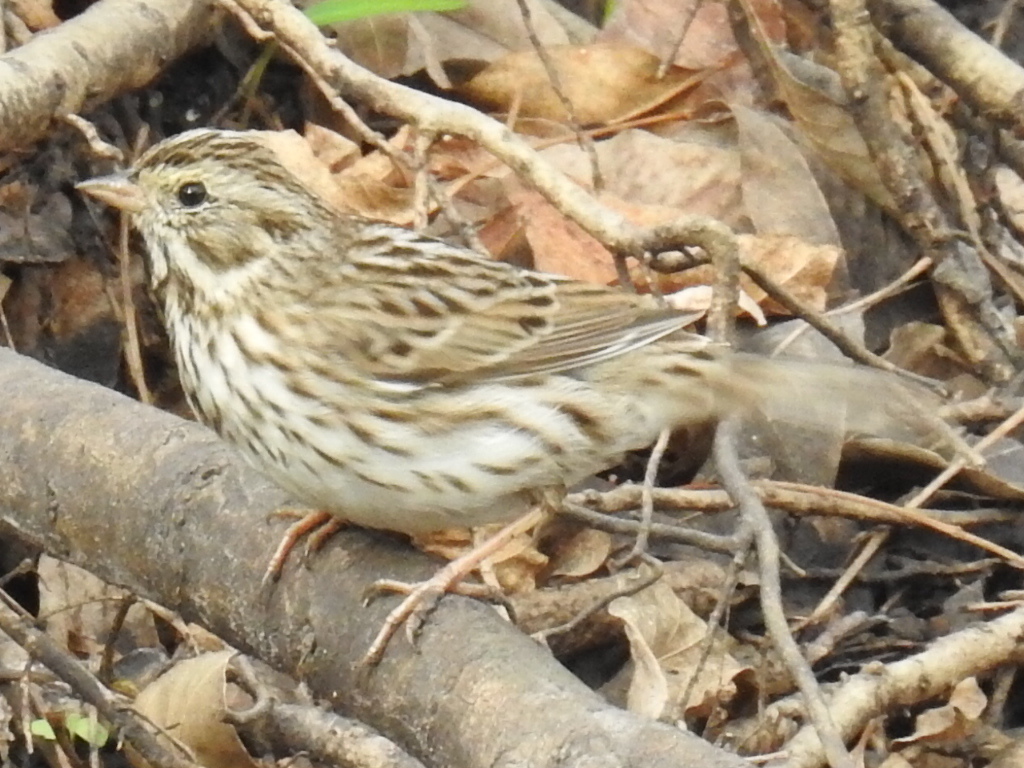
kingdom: Animalia
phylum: Chordata
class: Aves
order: Passeriformes
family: Passerellidae
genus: Passerculus
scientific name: Passerculus sandwichensis
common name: Savannah sparrow
